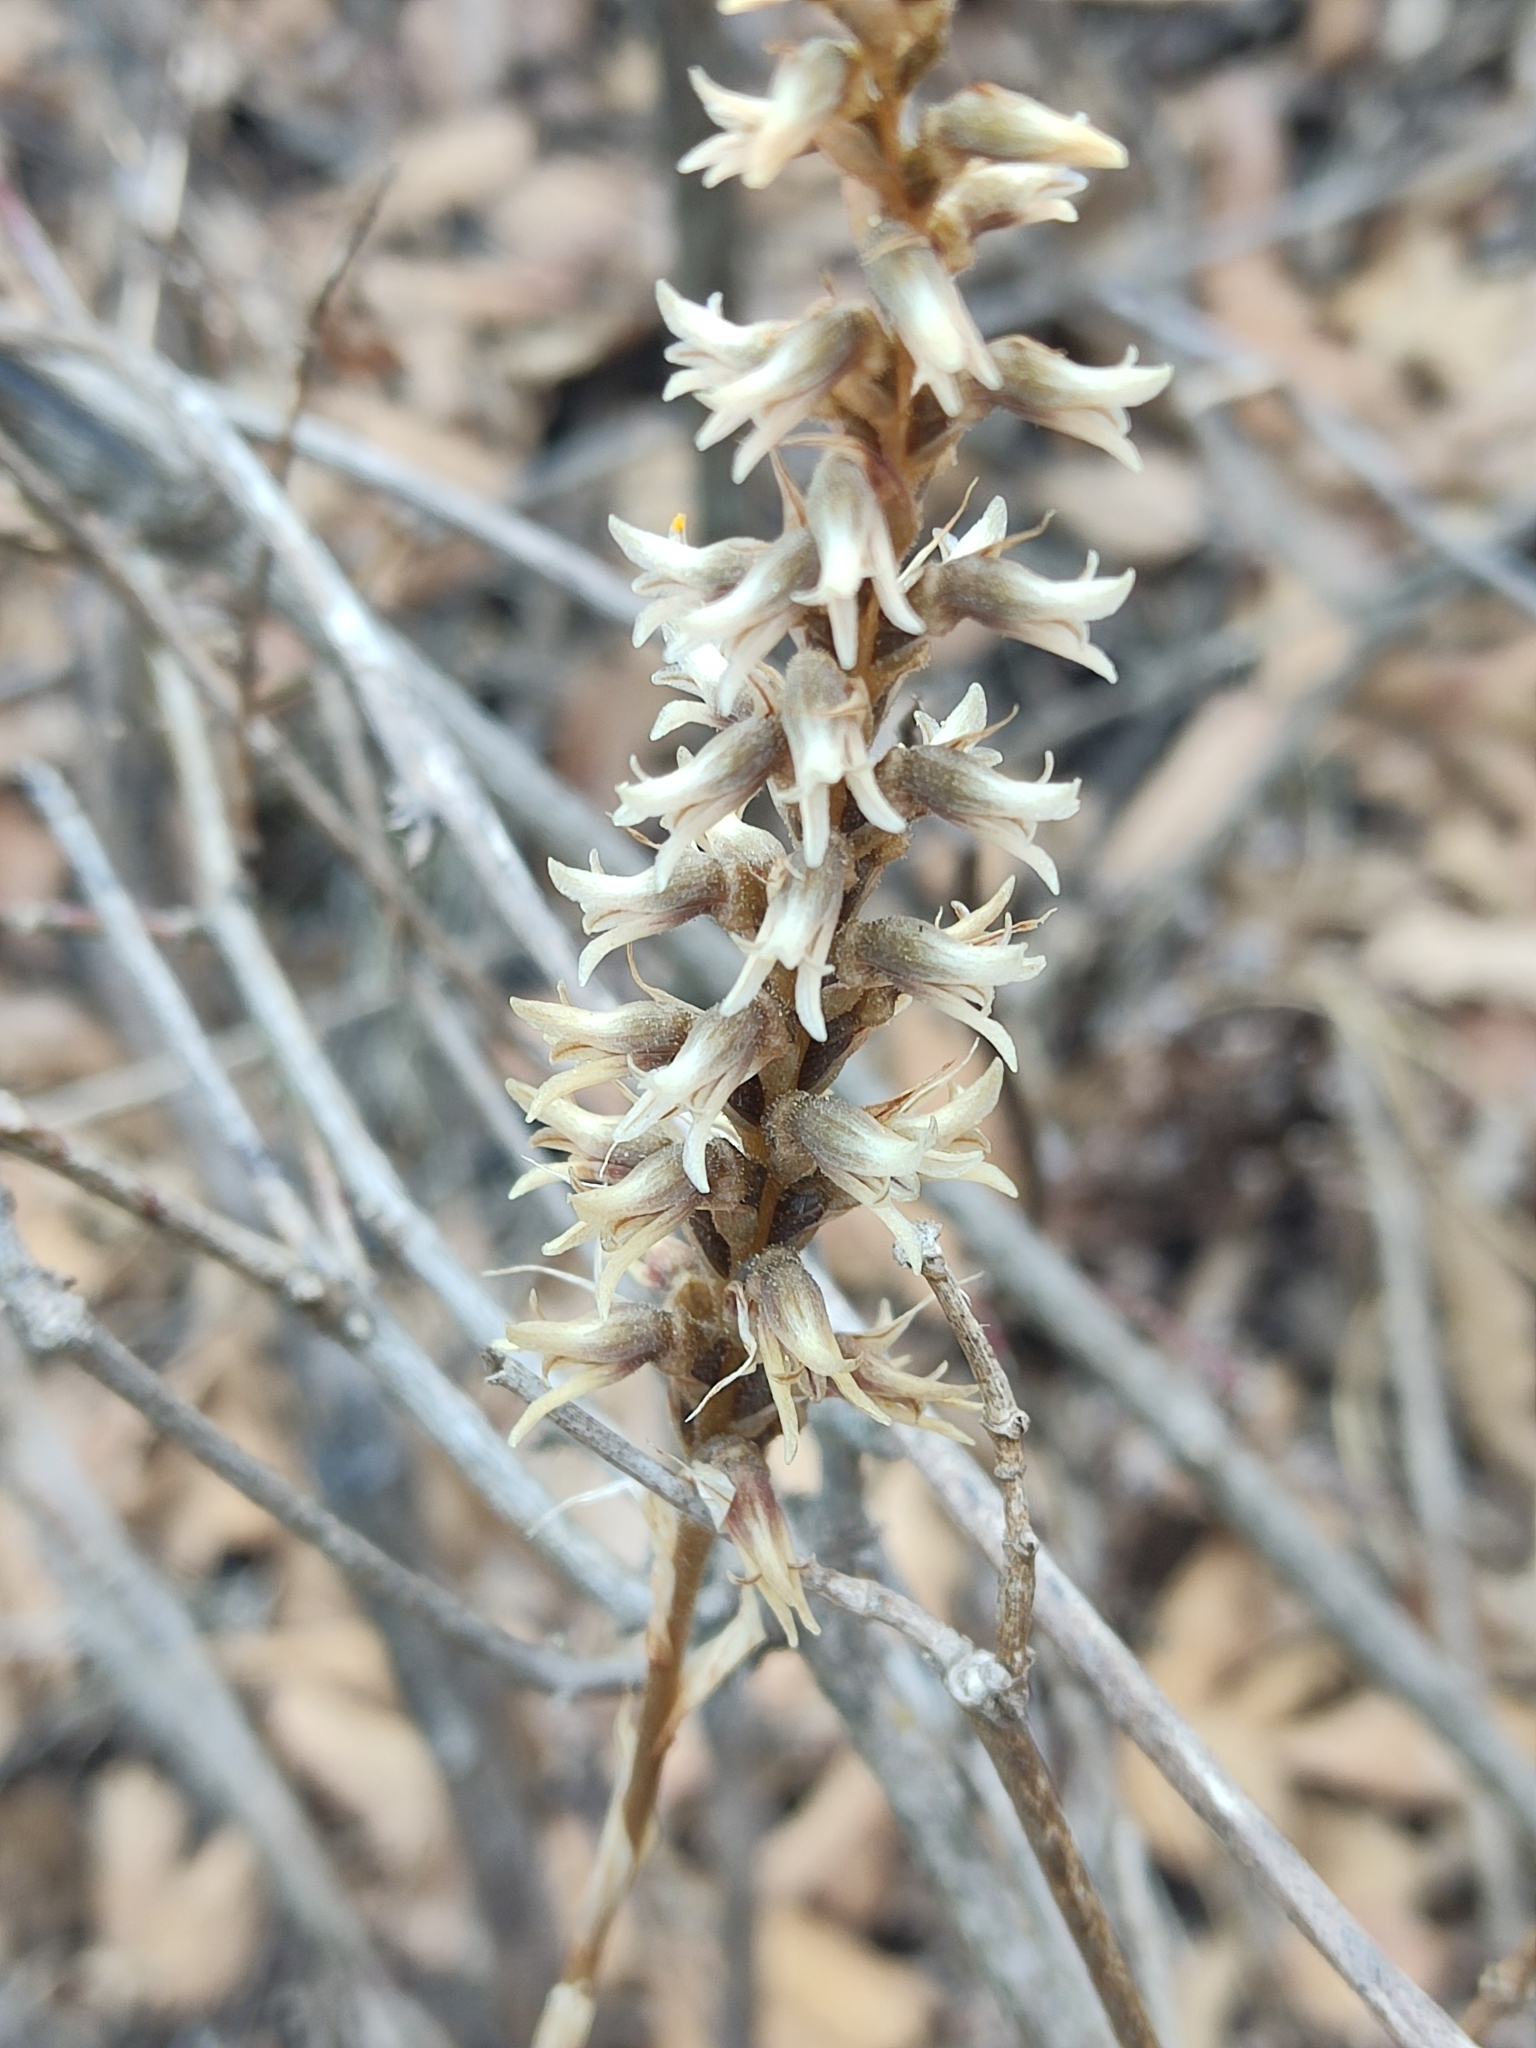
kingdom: Plantae
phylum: Tracheophyta
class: Liliopsida
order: Asparagales
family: Orchidaceae
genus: Aulosepalum
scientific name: Aulosepalum pyramidale
